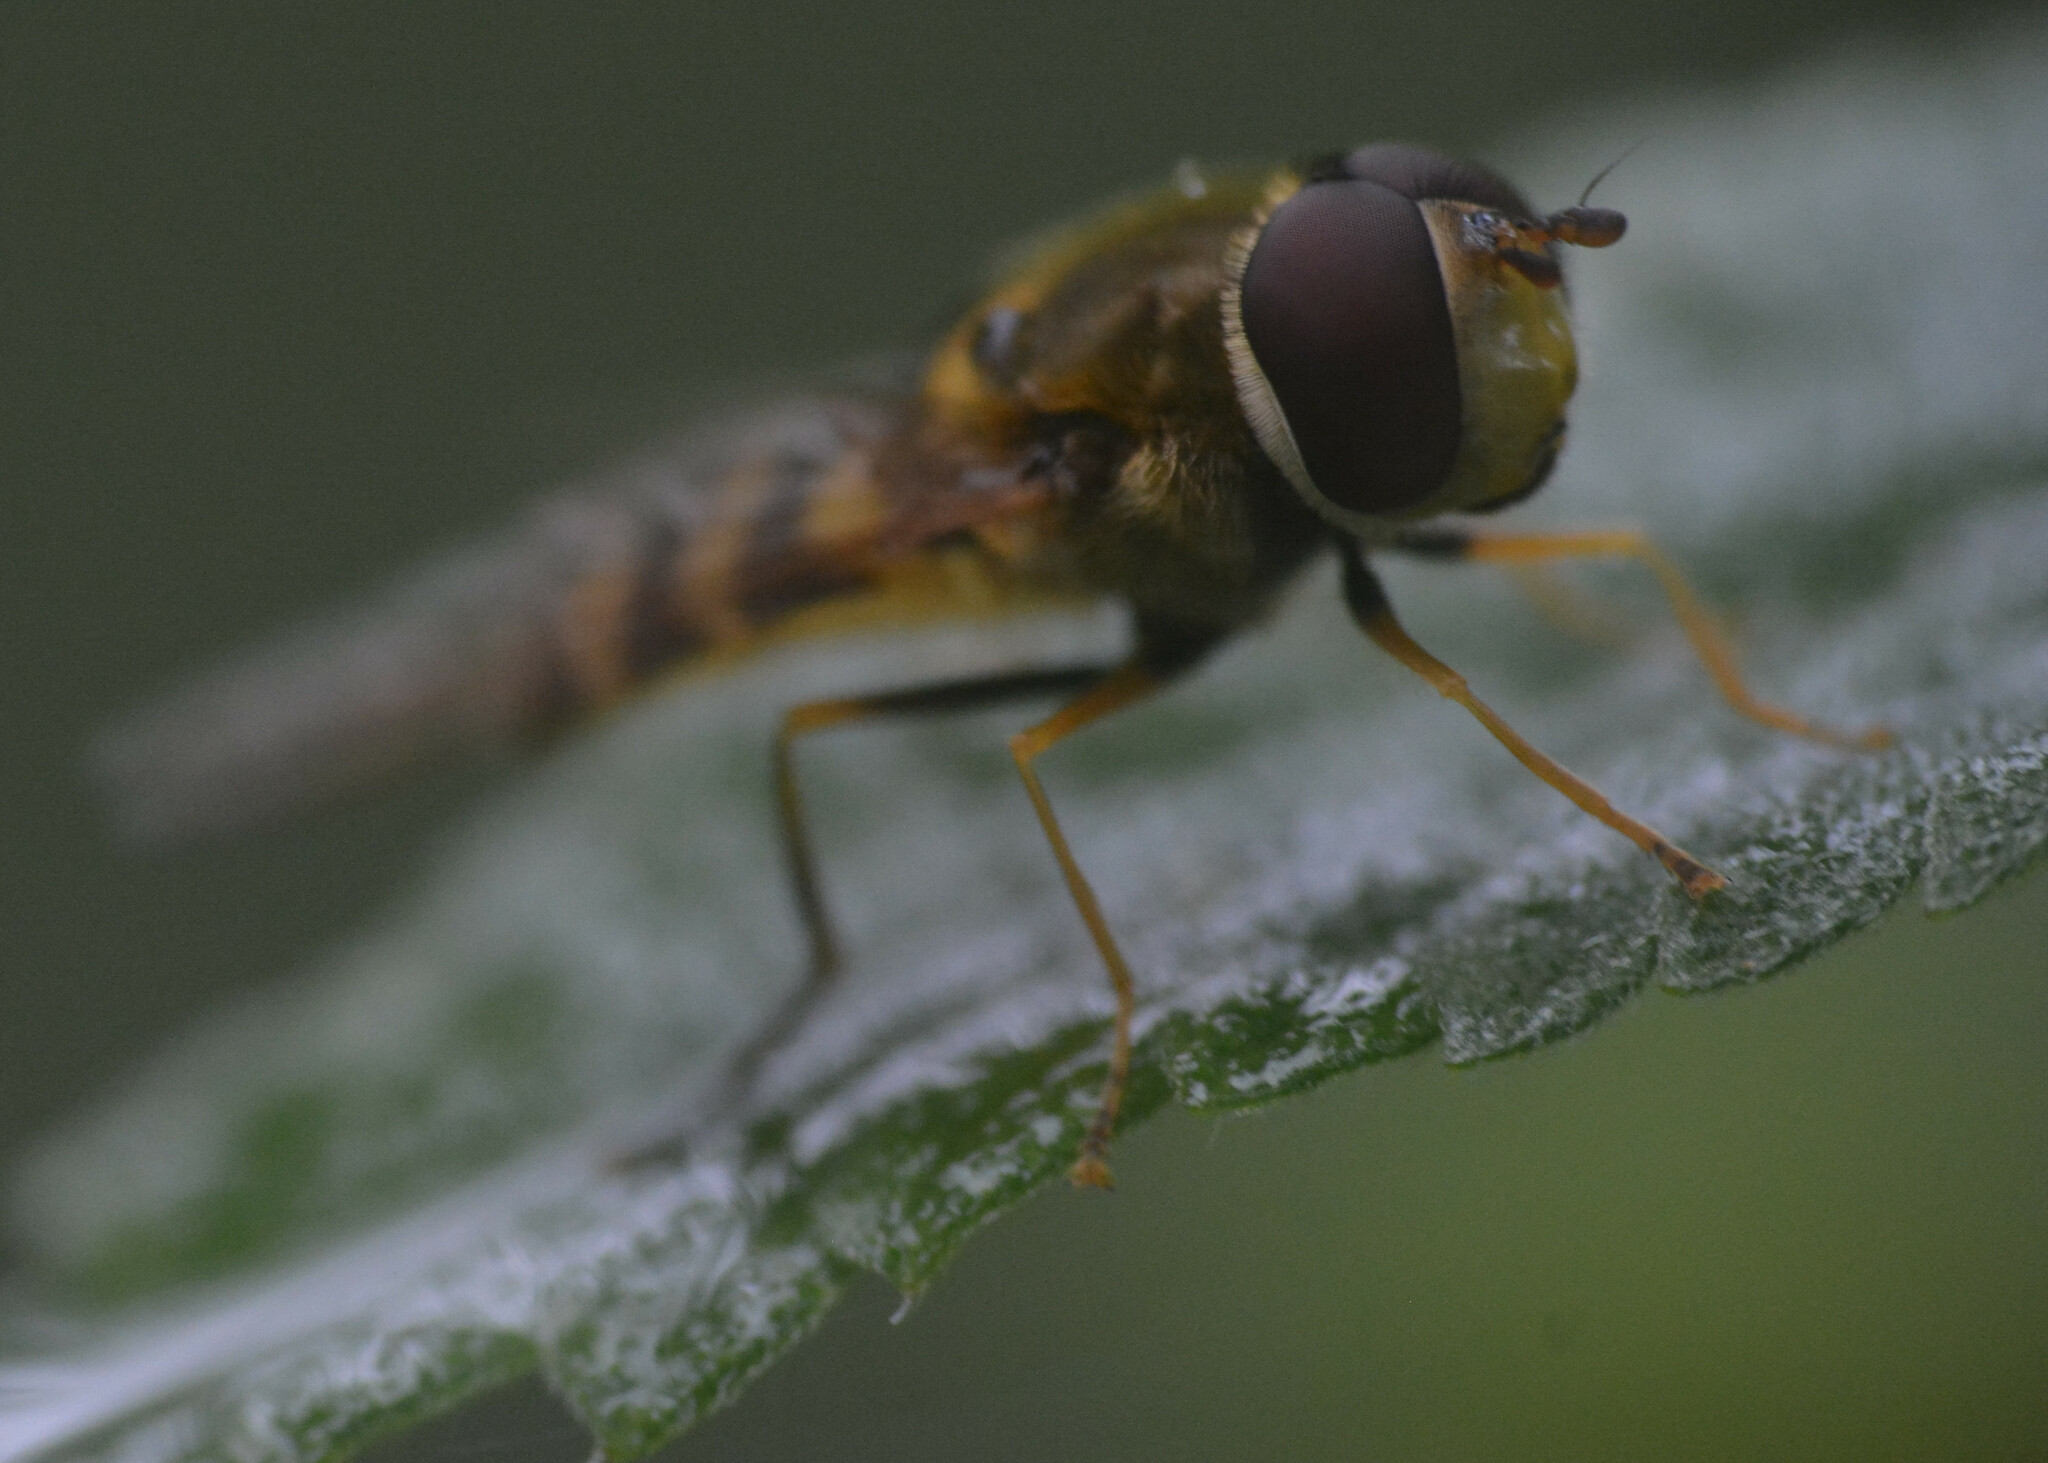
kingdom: Animalia
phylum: Arthropoda
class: Insecta
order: Diptera
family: Syrphidae
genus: Syrphus
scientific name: Syrphus
